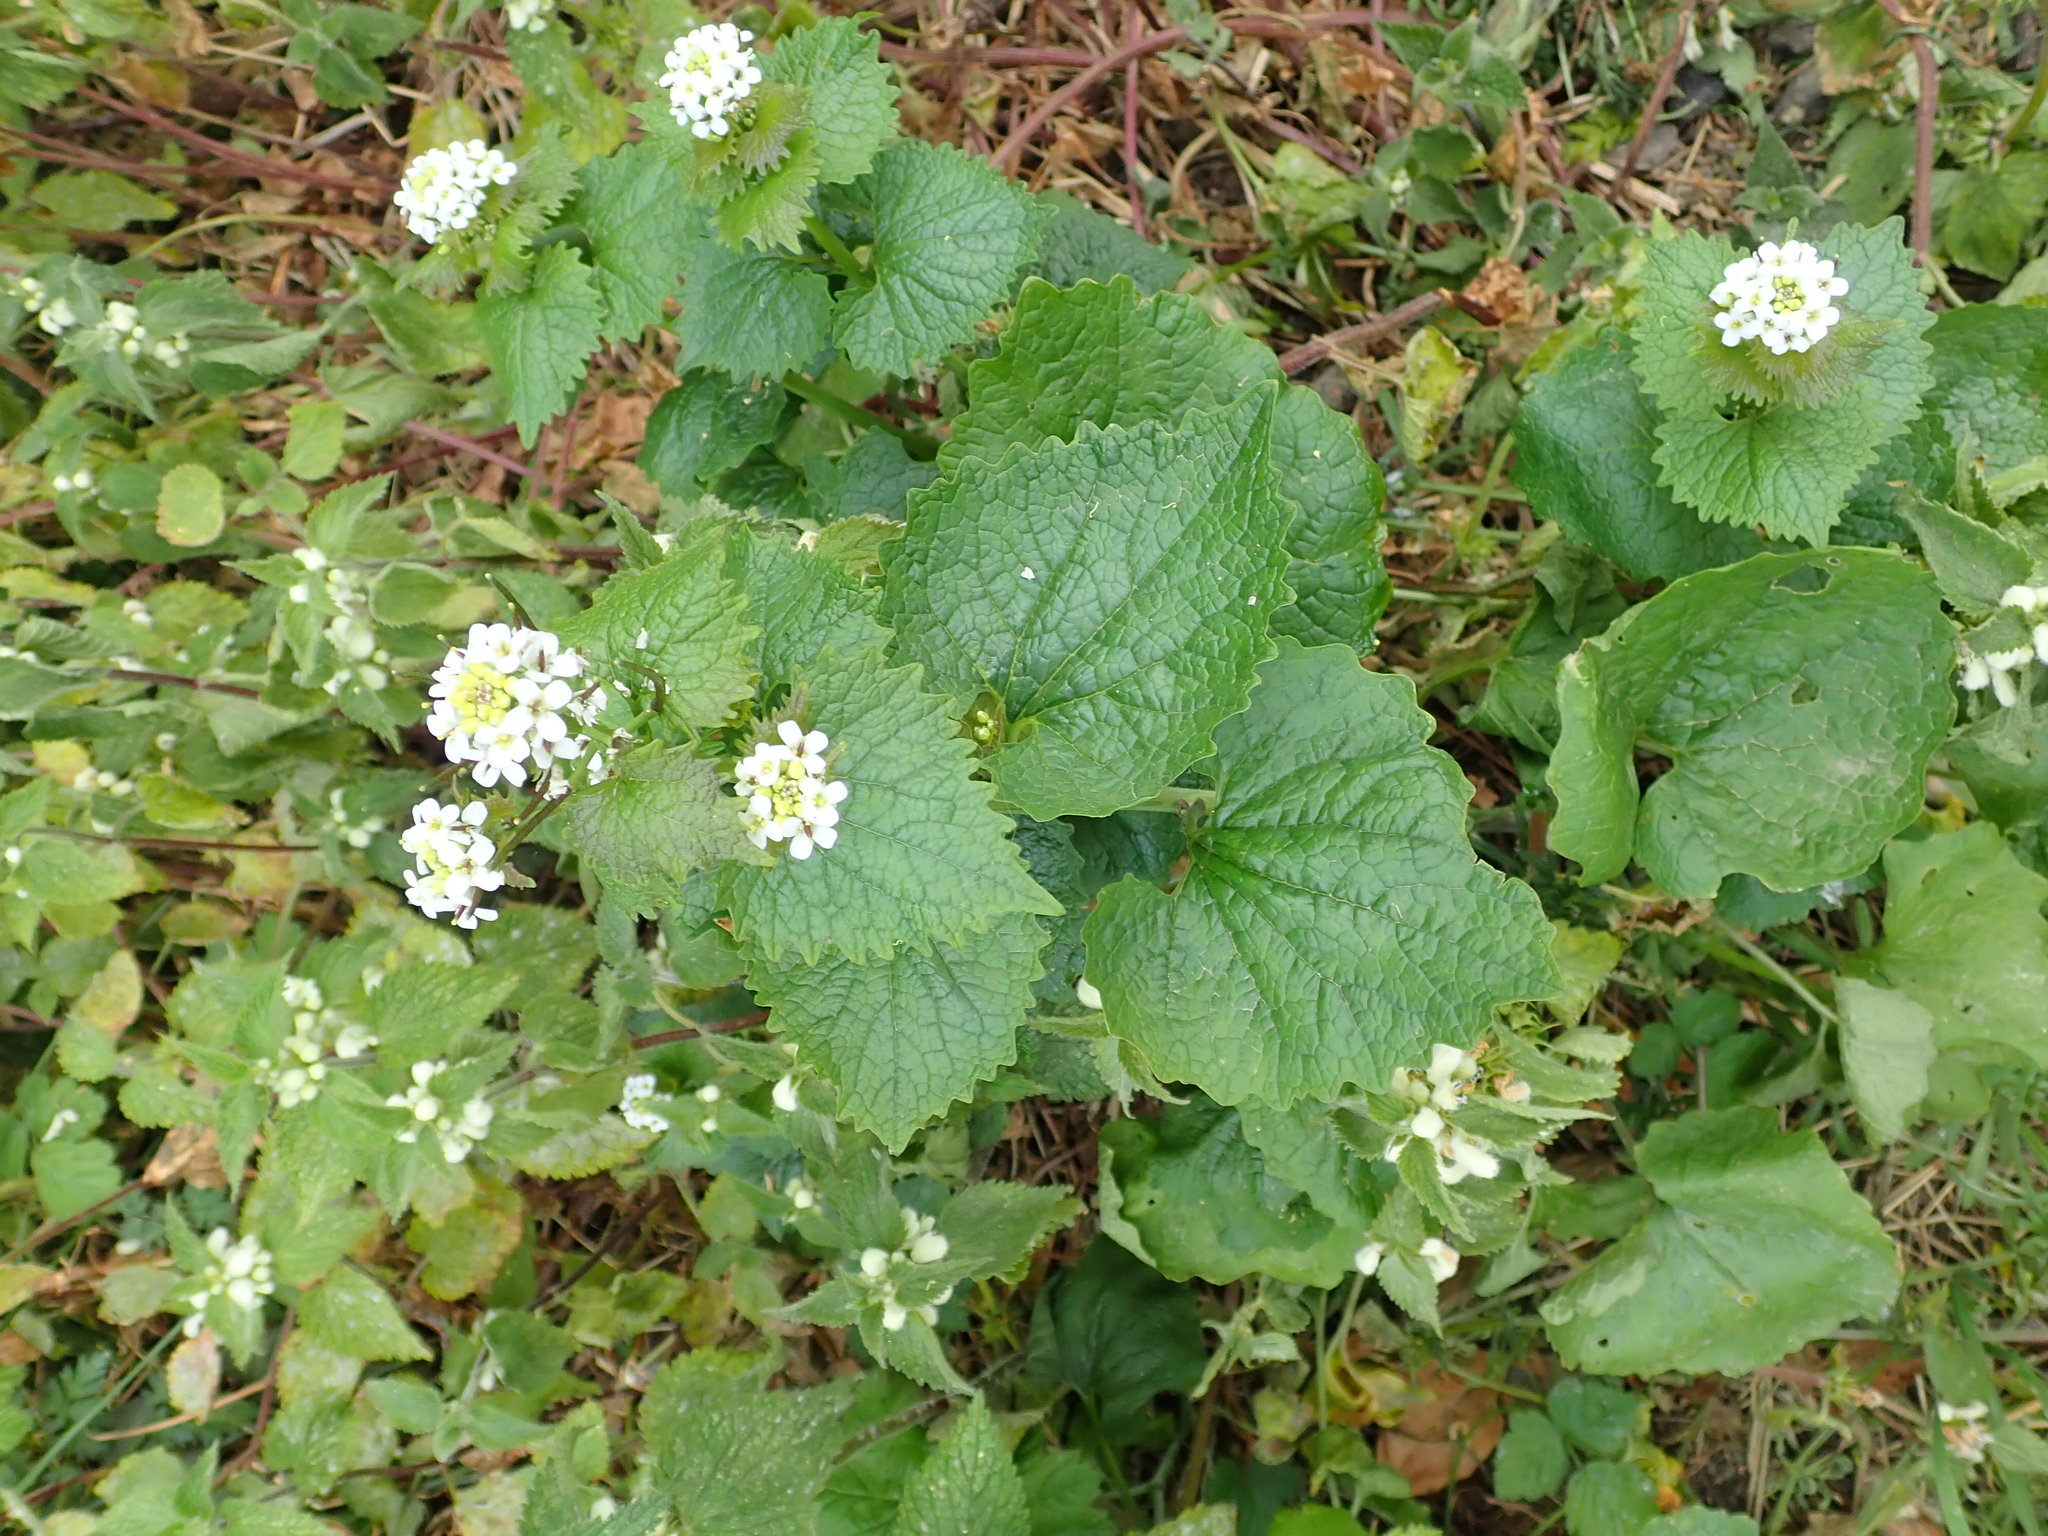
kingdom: Plantae
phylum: Tracheophyta
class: Magnoliopsida
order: Brassicales
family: Brassicaceae
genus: Alliaria
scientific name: Alliaria petiolata
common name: Garlic mustard
